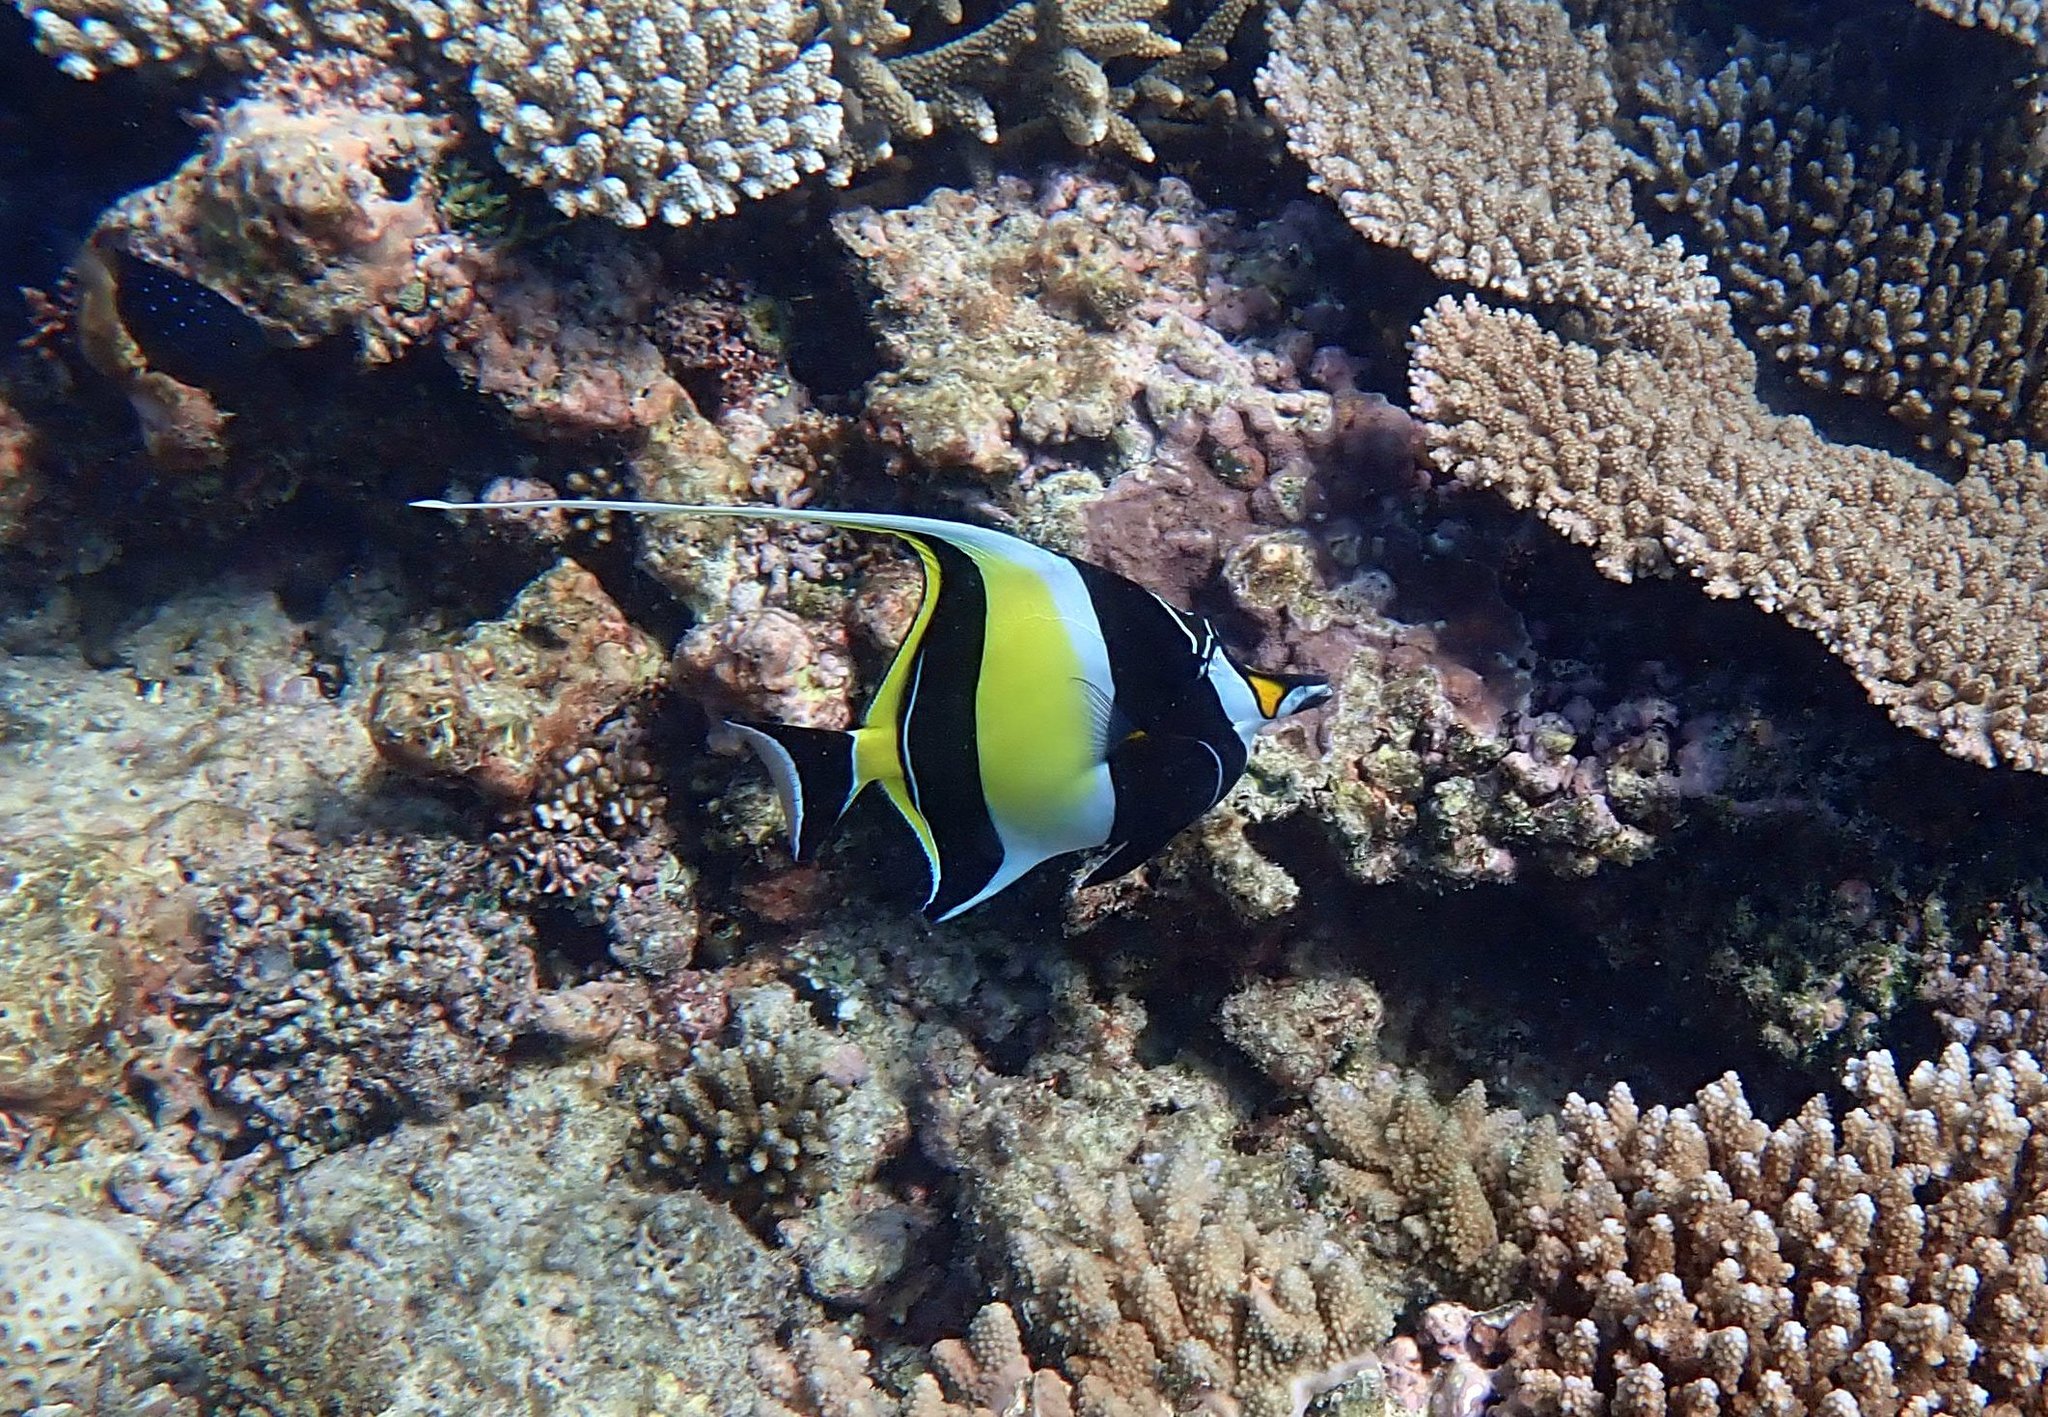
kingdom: Animalia
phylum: Chordata
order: Perciformes
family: Zanclidae
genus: Zanclus
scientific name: Zanclus cornutus
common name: Moorish idol
